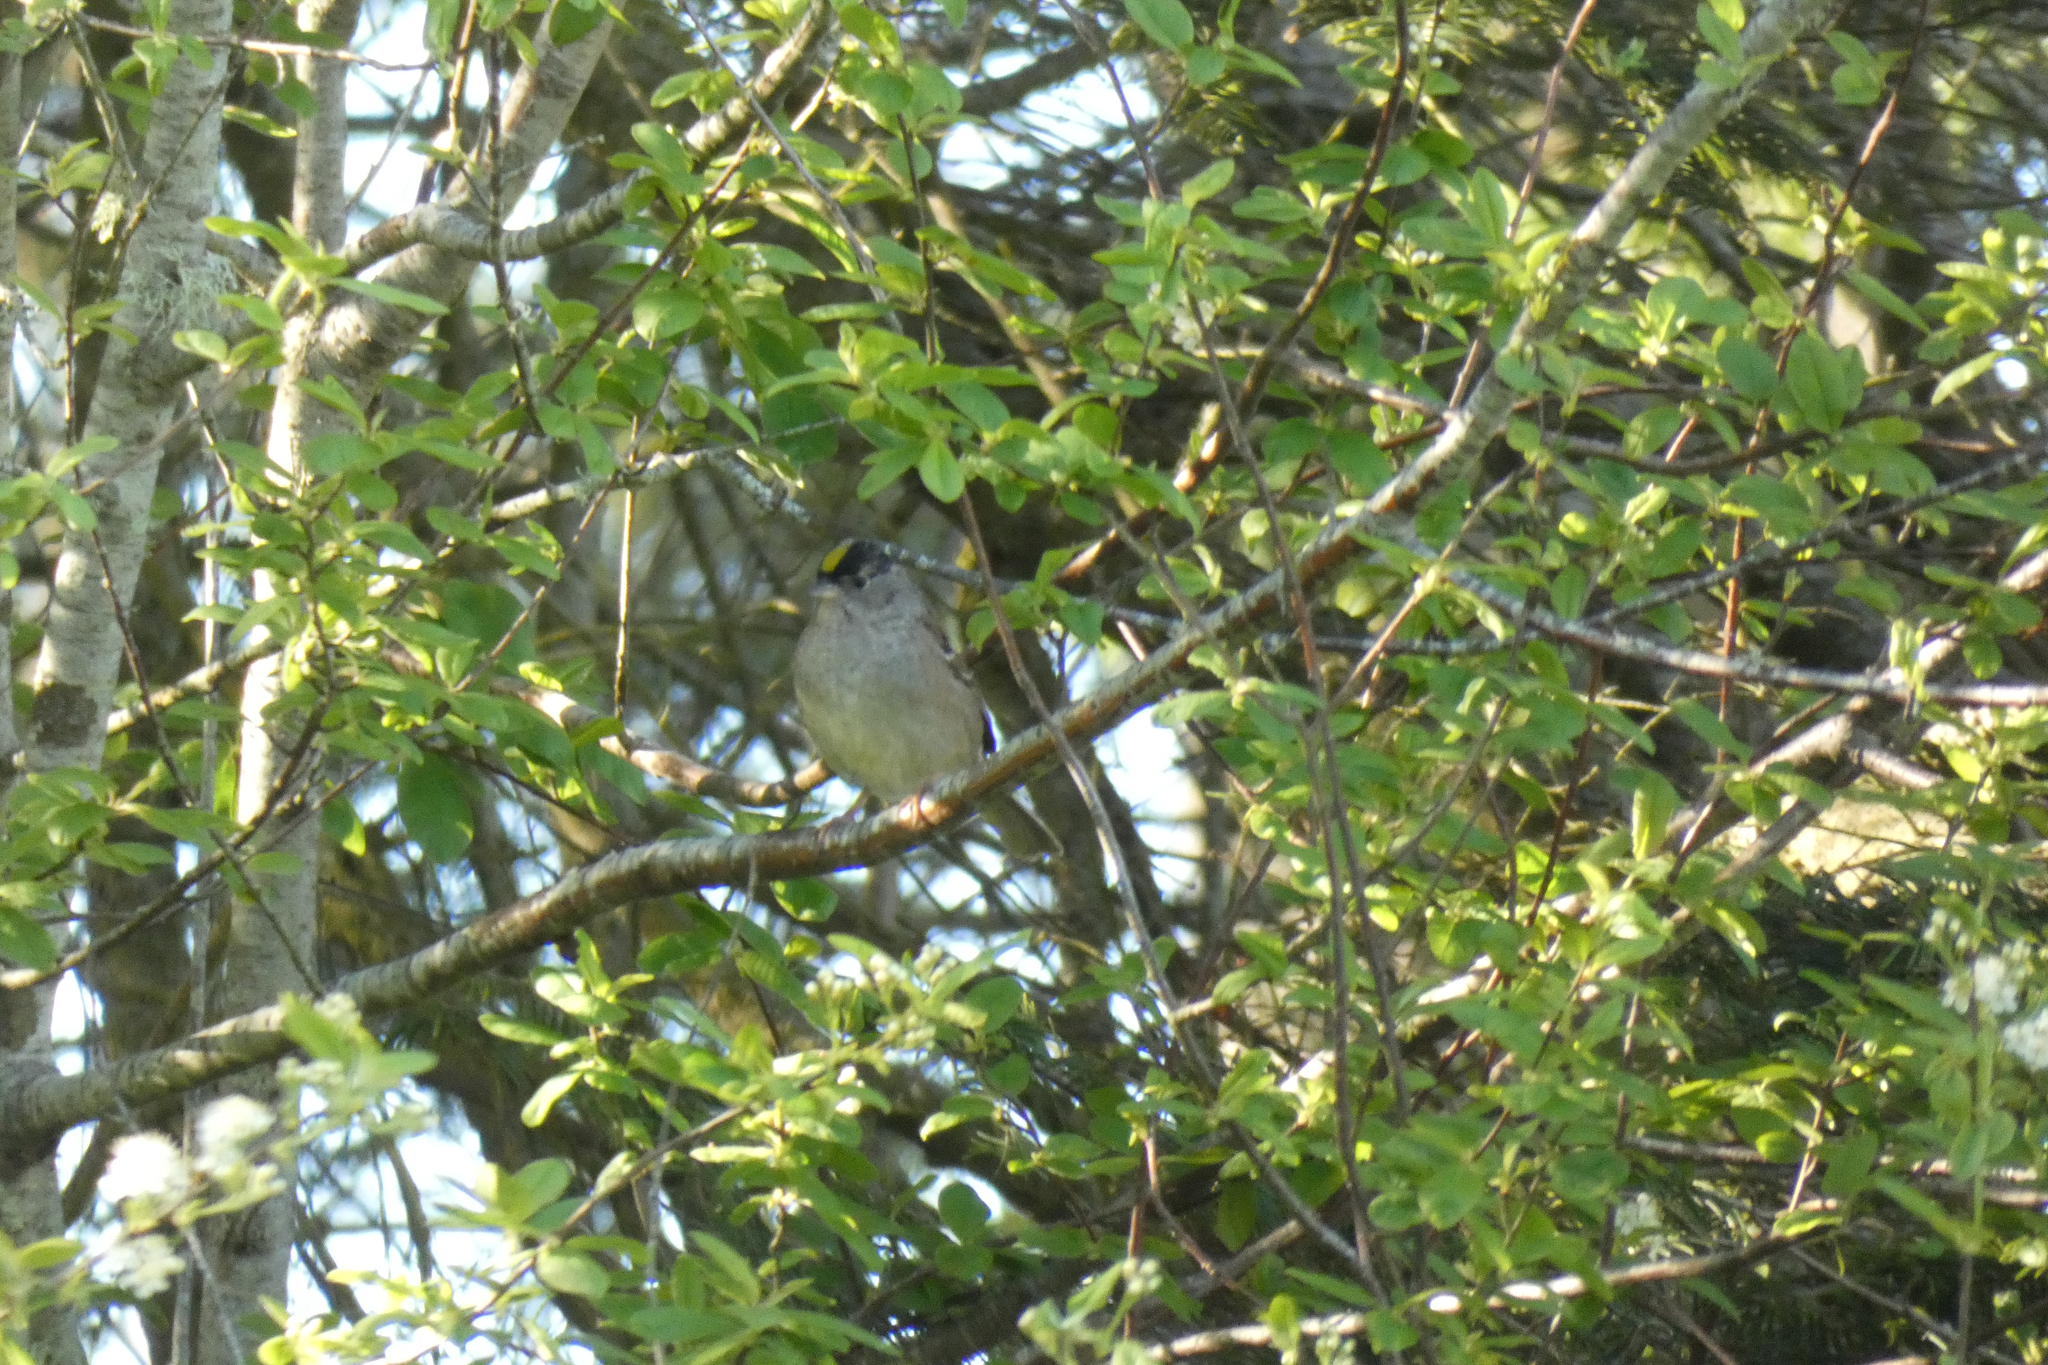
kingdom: Animalia
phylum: Chordata
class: Aves
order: Passeriformes
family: Passerellidae
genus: Zonotrichia
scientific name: Zonotrichia atricapilla
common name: Golden-crowned sparrow
